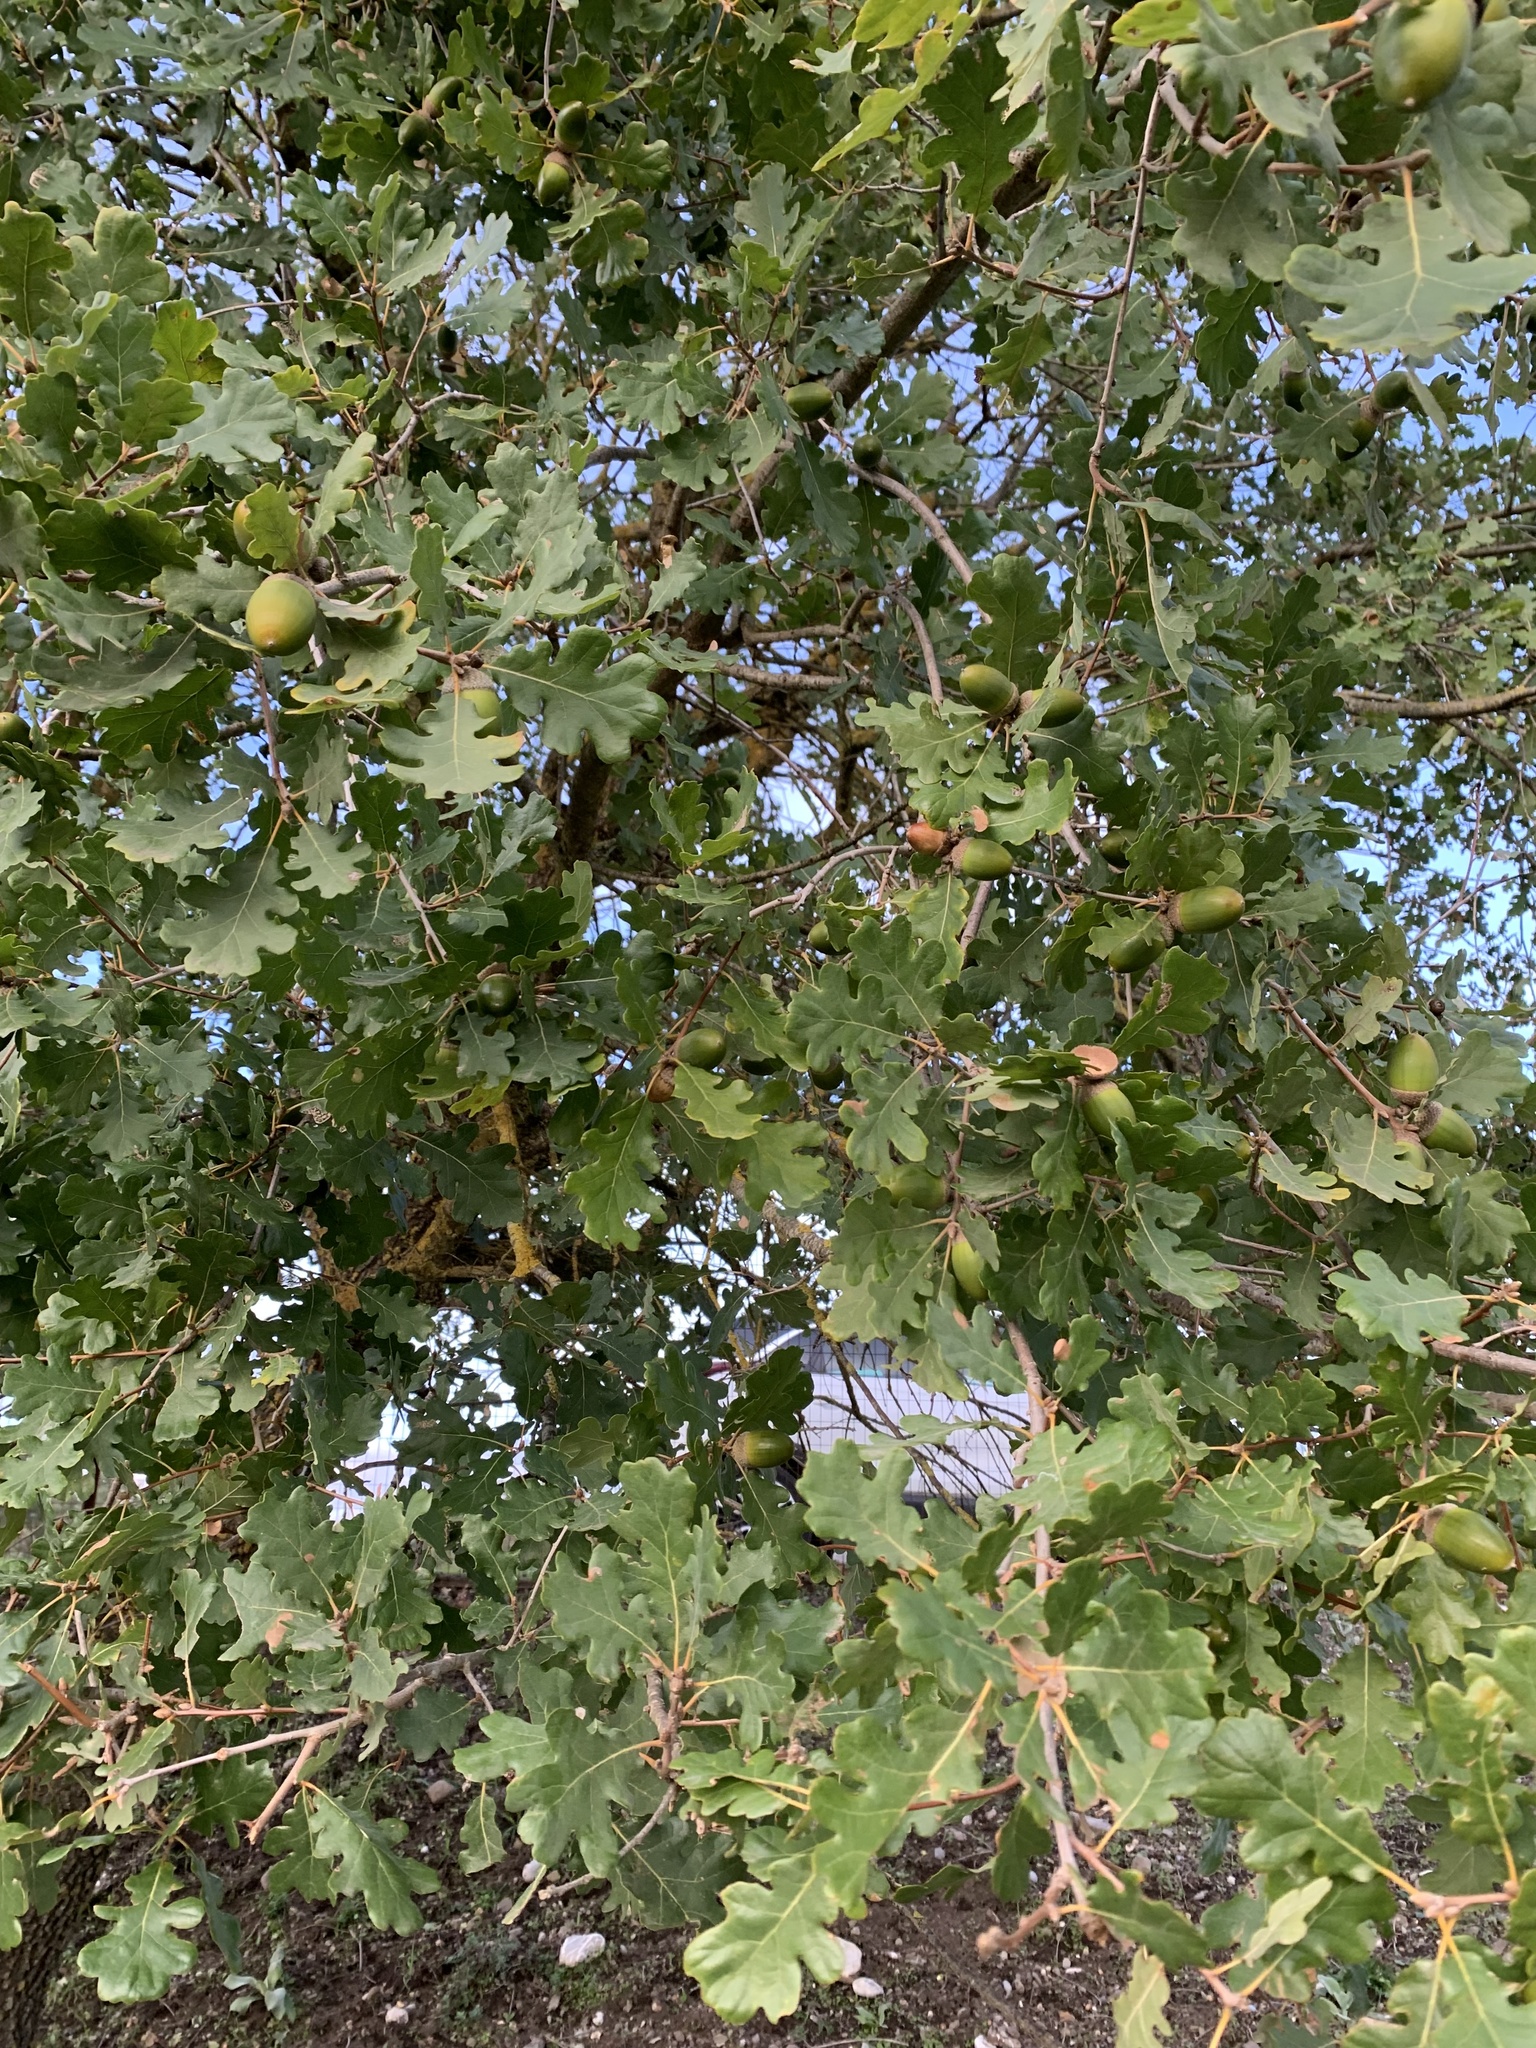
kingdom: Plantae
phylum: Tracheophyta
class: Magnoliopsida
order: Fagales
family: Fagaceae
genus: Quercus
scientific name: Quercus pubescens
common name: Downy oak
